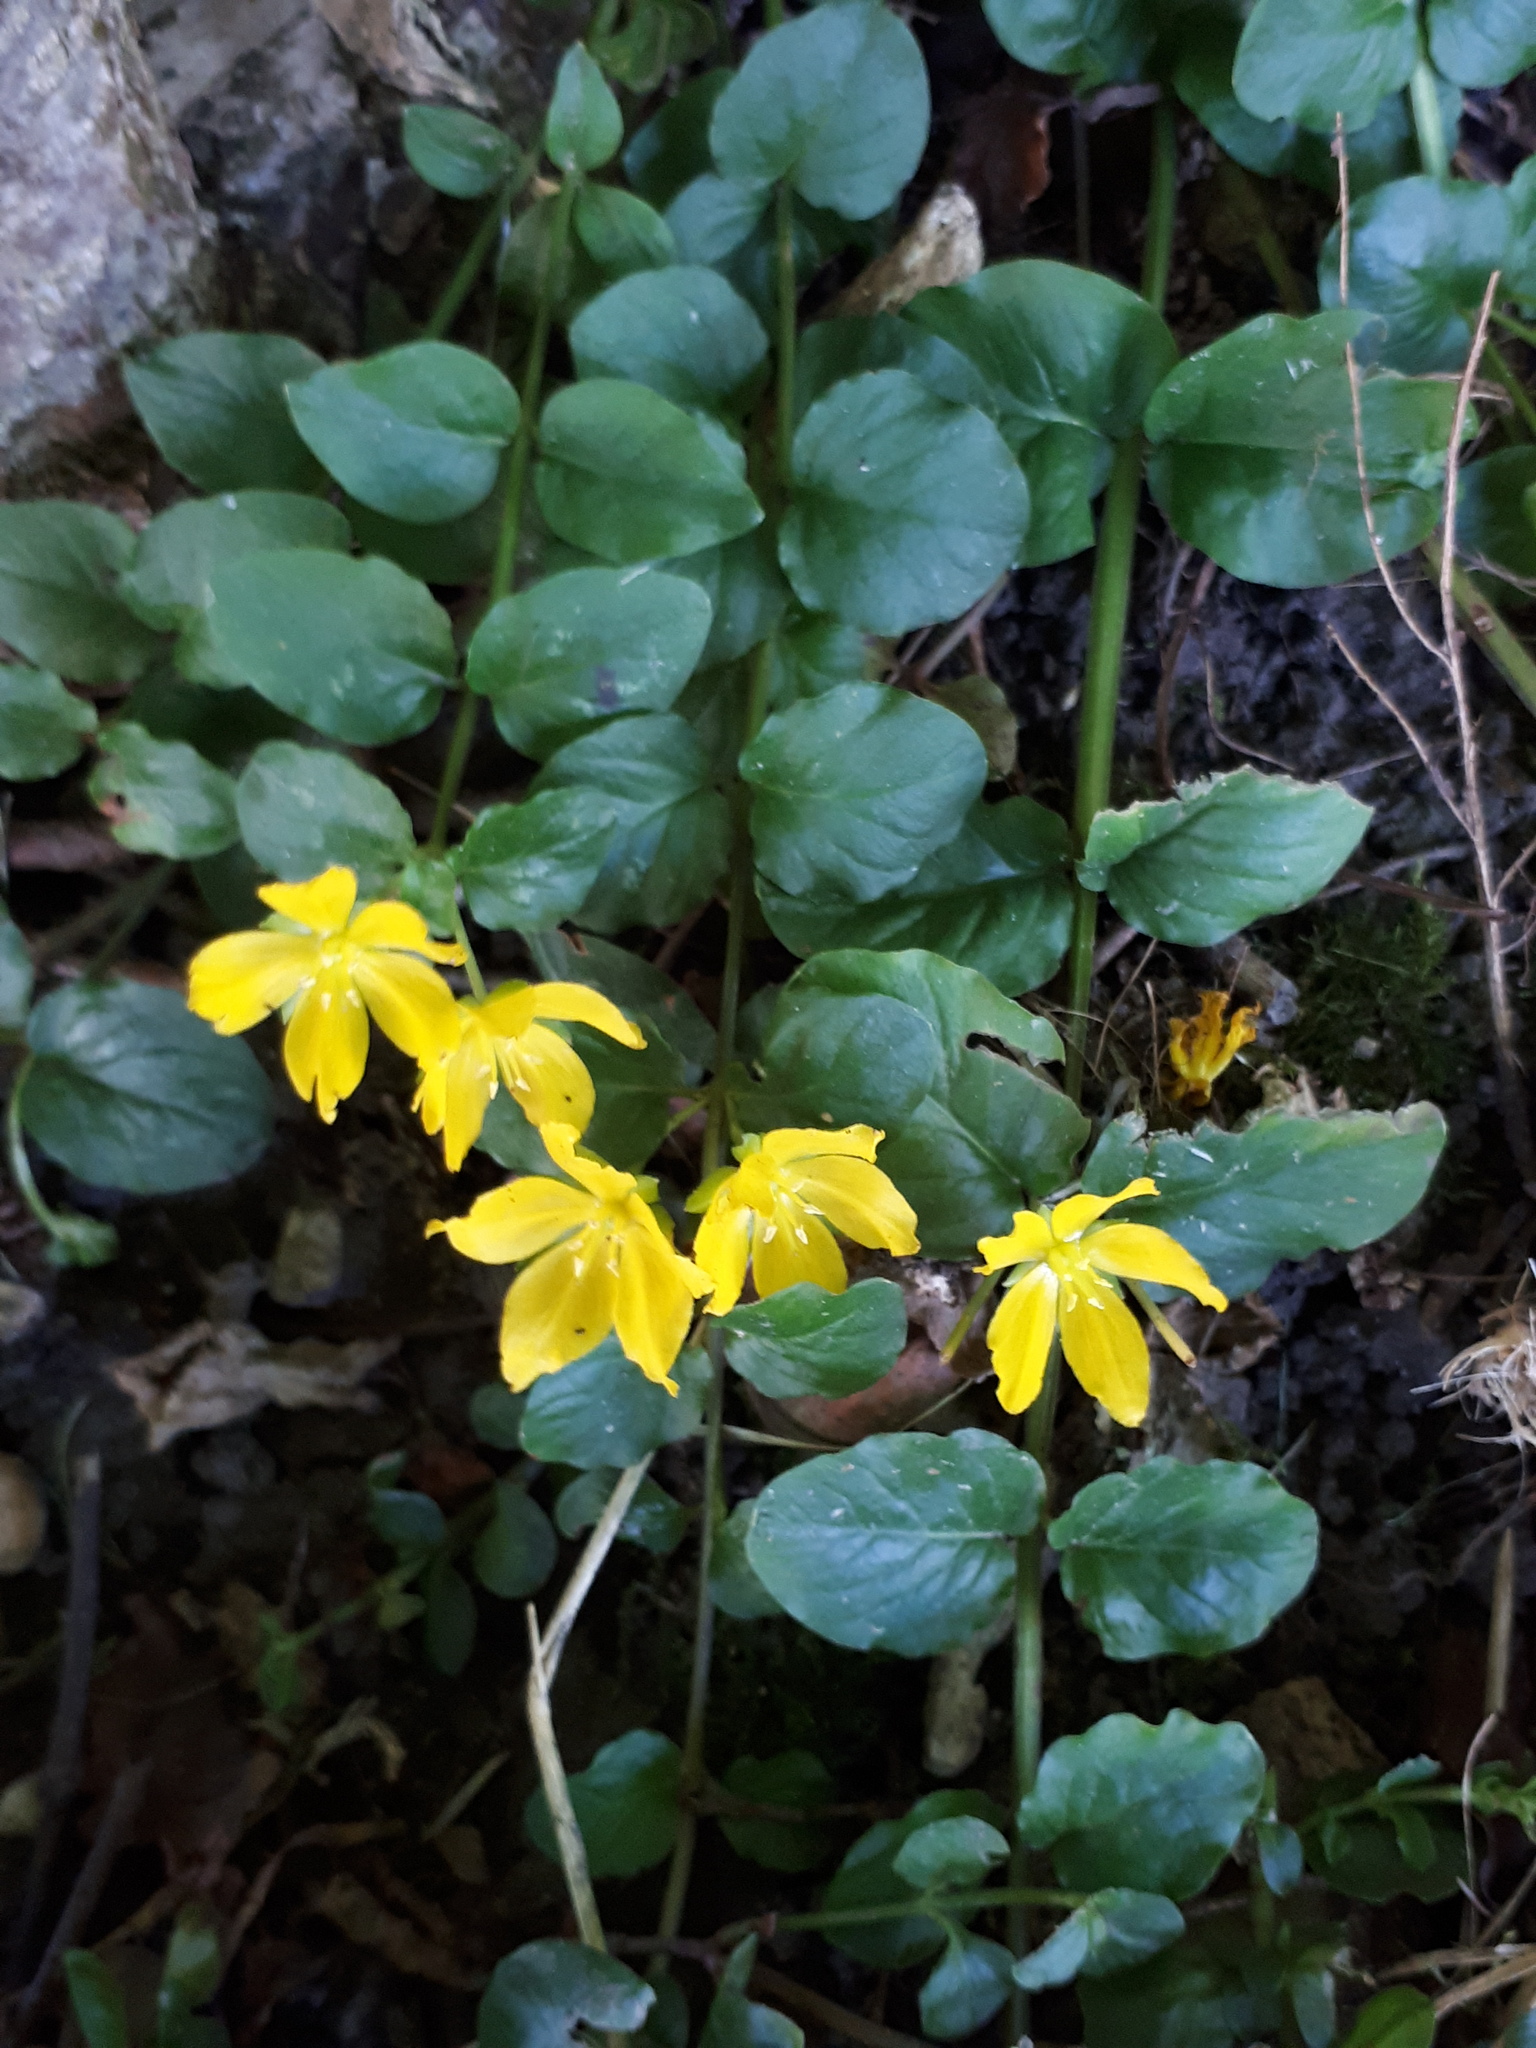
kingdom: Plantae
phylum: Tracheophyta
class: Magnoliopsida
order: Ericales
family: Primulaceae
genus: Lysimachia
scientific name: Lysimachia nummularia
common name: Moneywort
